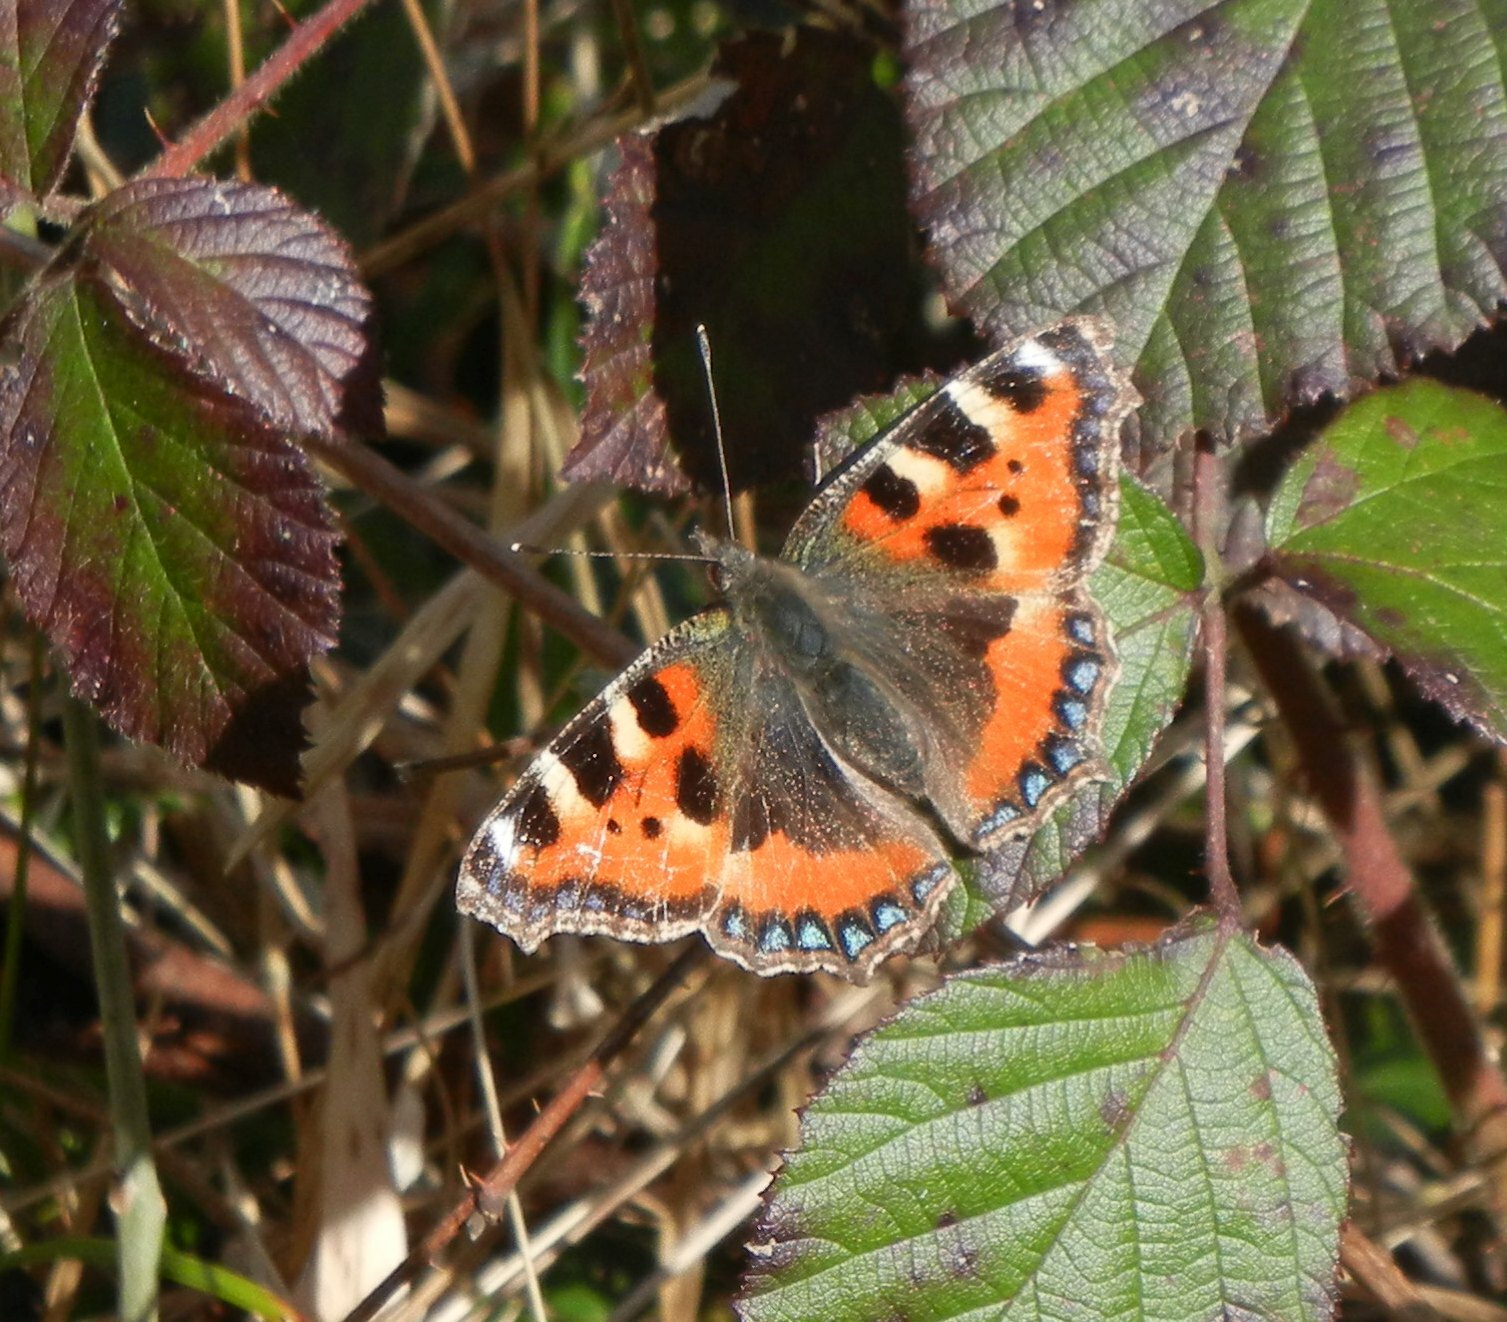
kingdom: Animalia
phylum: Arthropoda
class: Insecta
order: Lepidoptera
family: Nymphalidae
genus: Aglais
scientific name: Aglais urticae
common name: Small tortoiseshell
